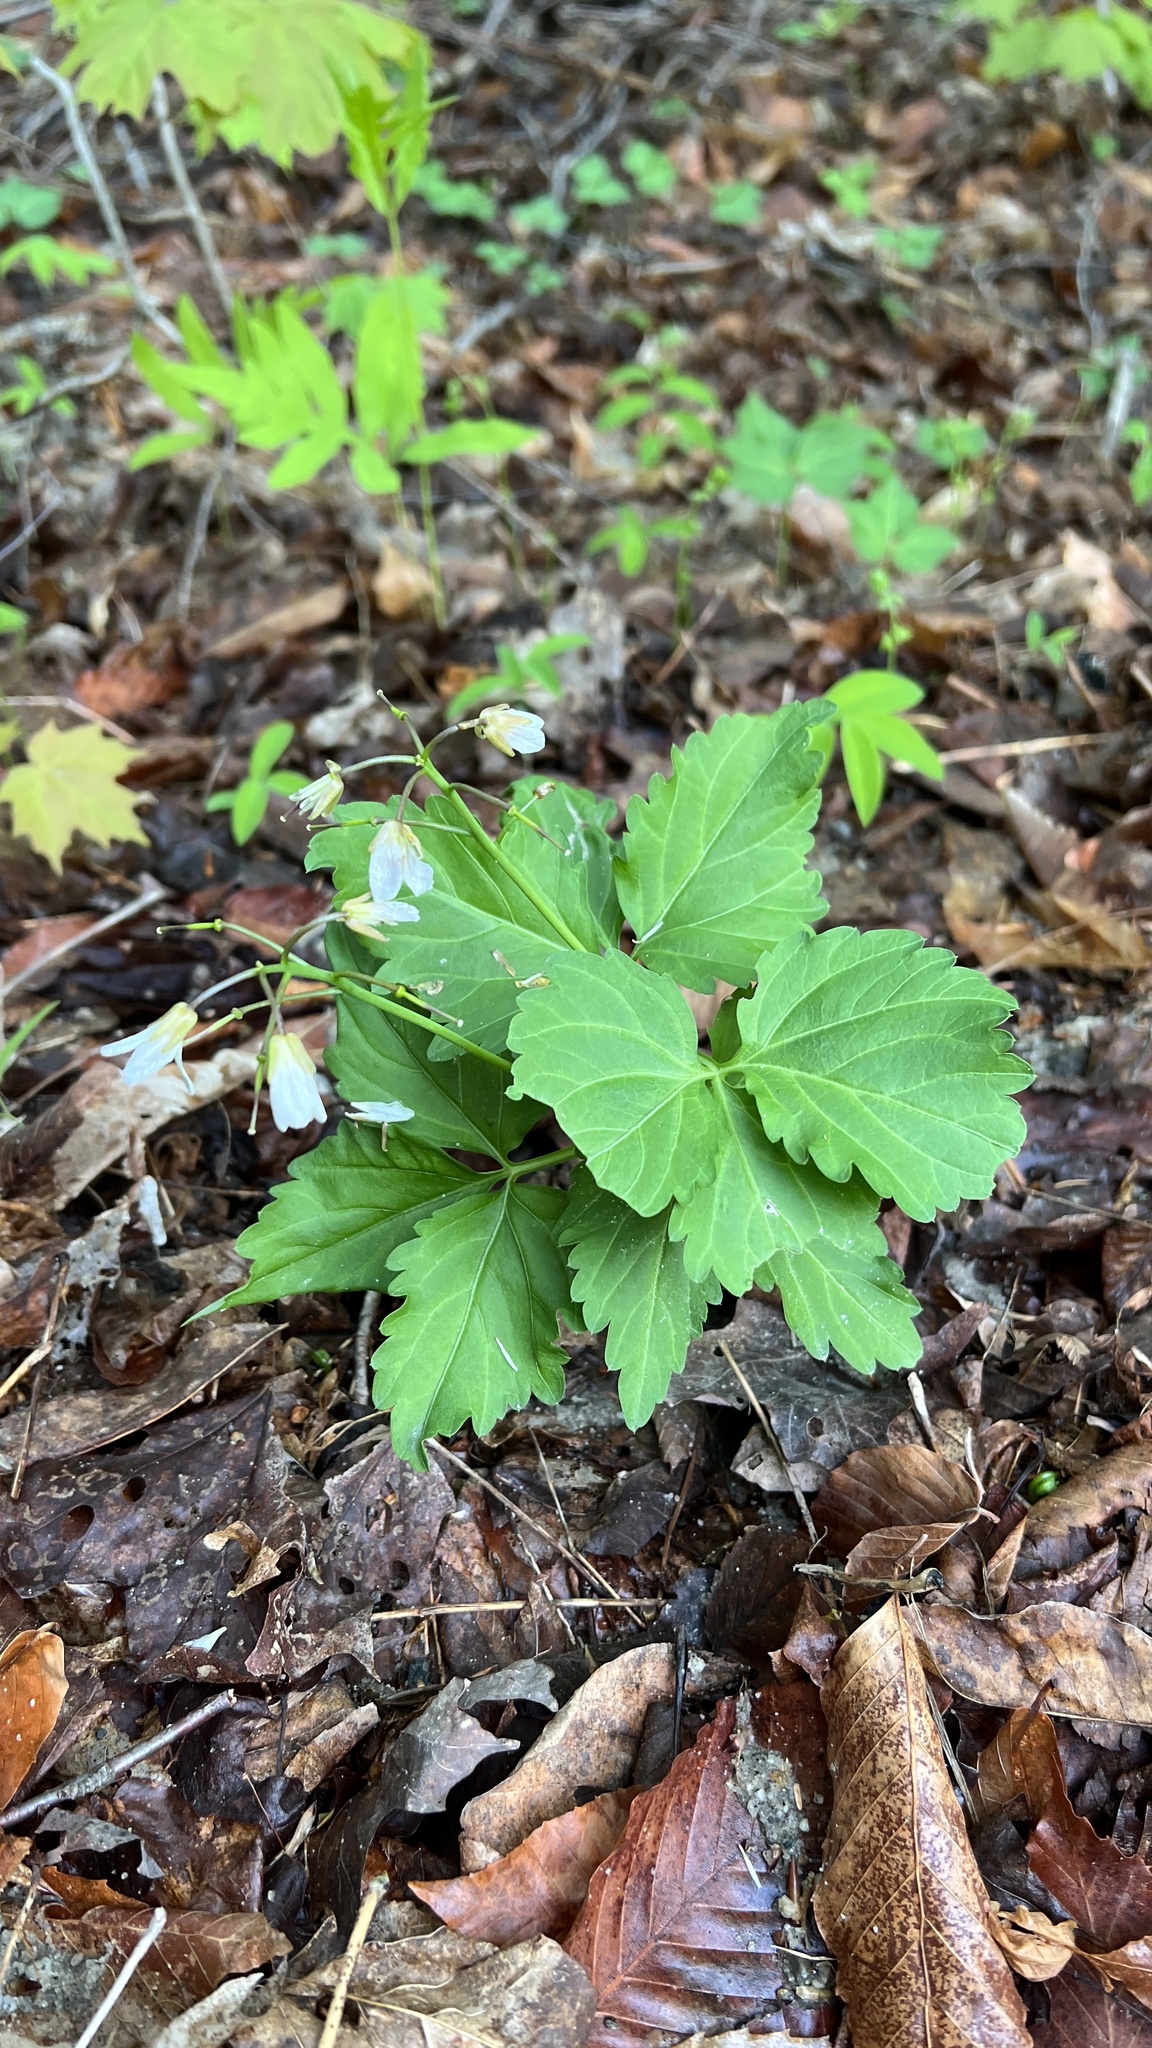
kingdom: Plantae
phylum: Tracheophyta
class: Magnoliopsida
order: Brassicales
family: Brassicaceae
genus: Cardamine
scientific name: Cardamine diphylla
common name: Broad-leaved toothwort
